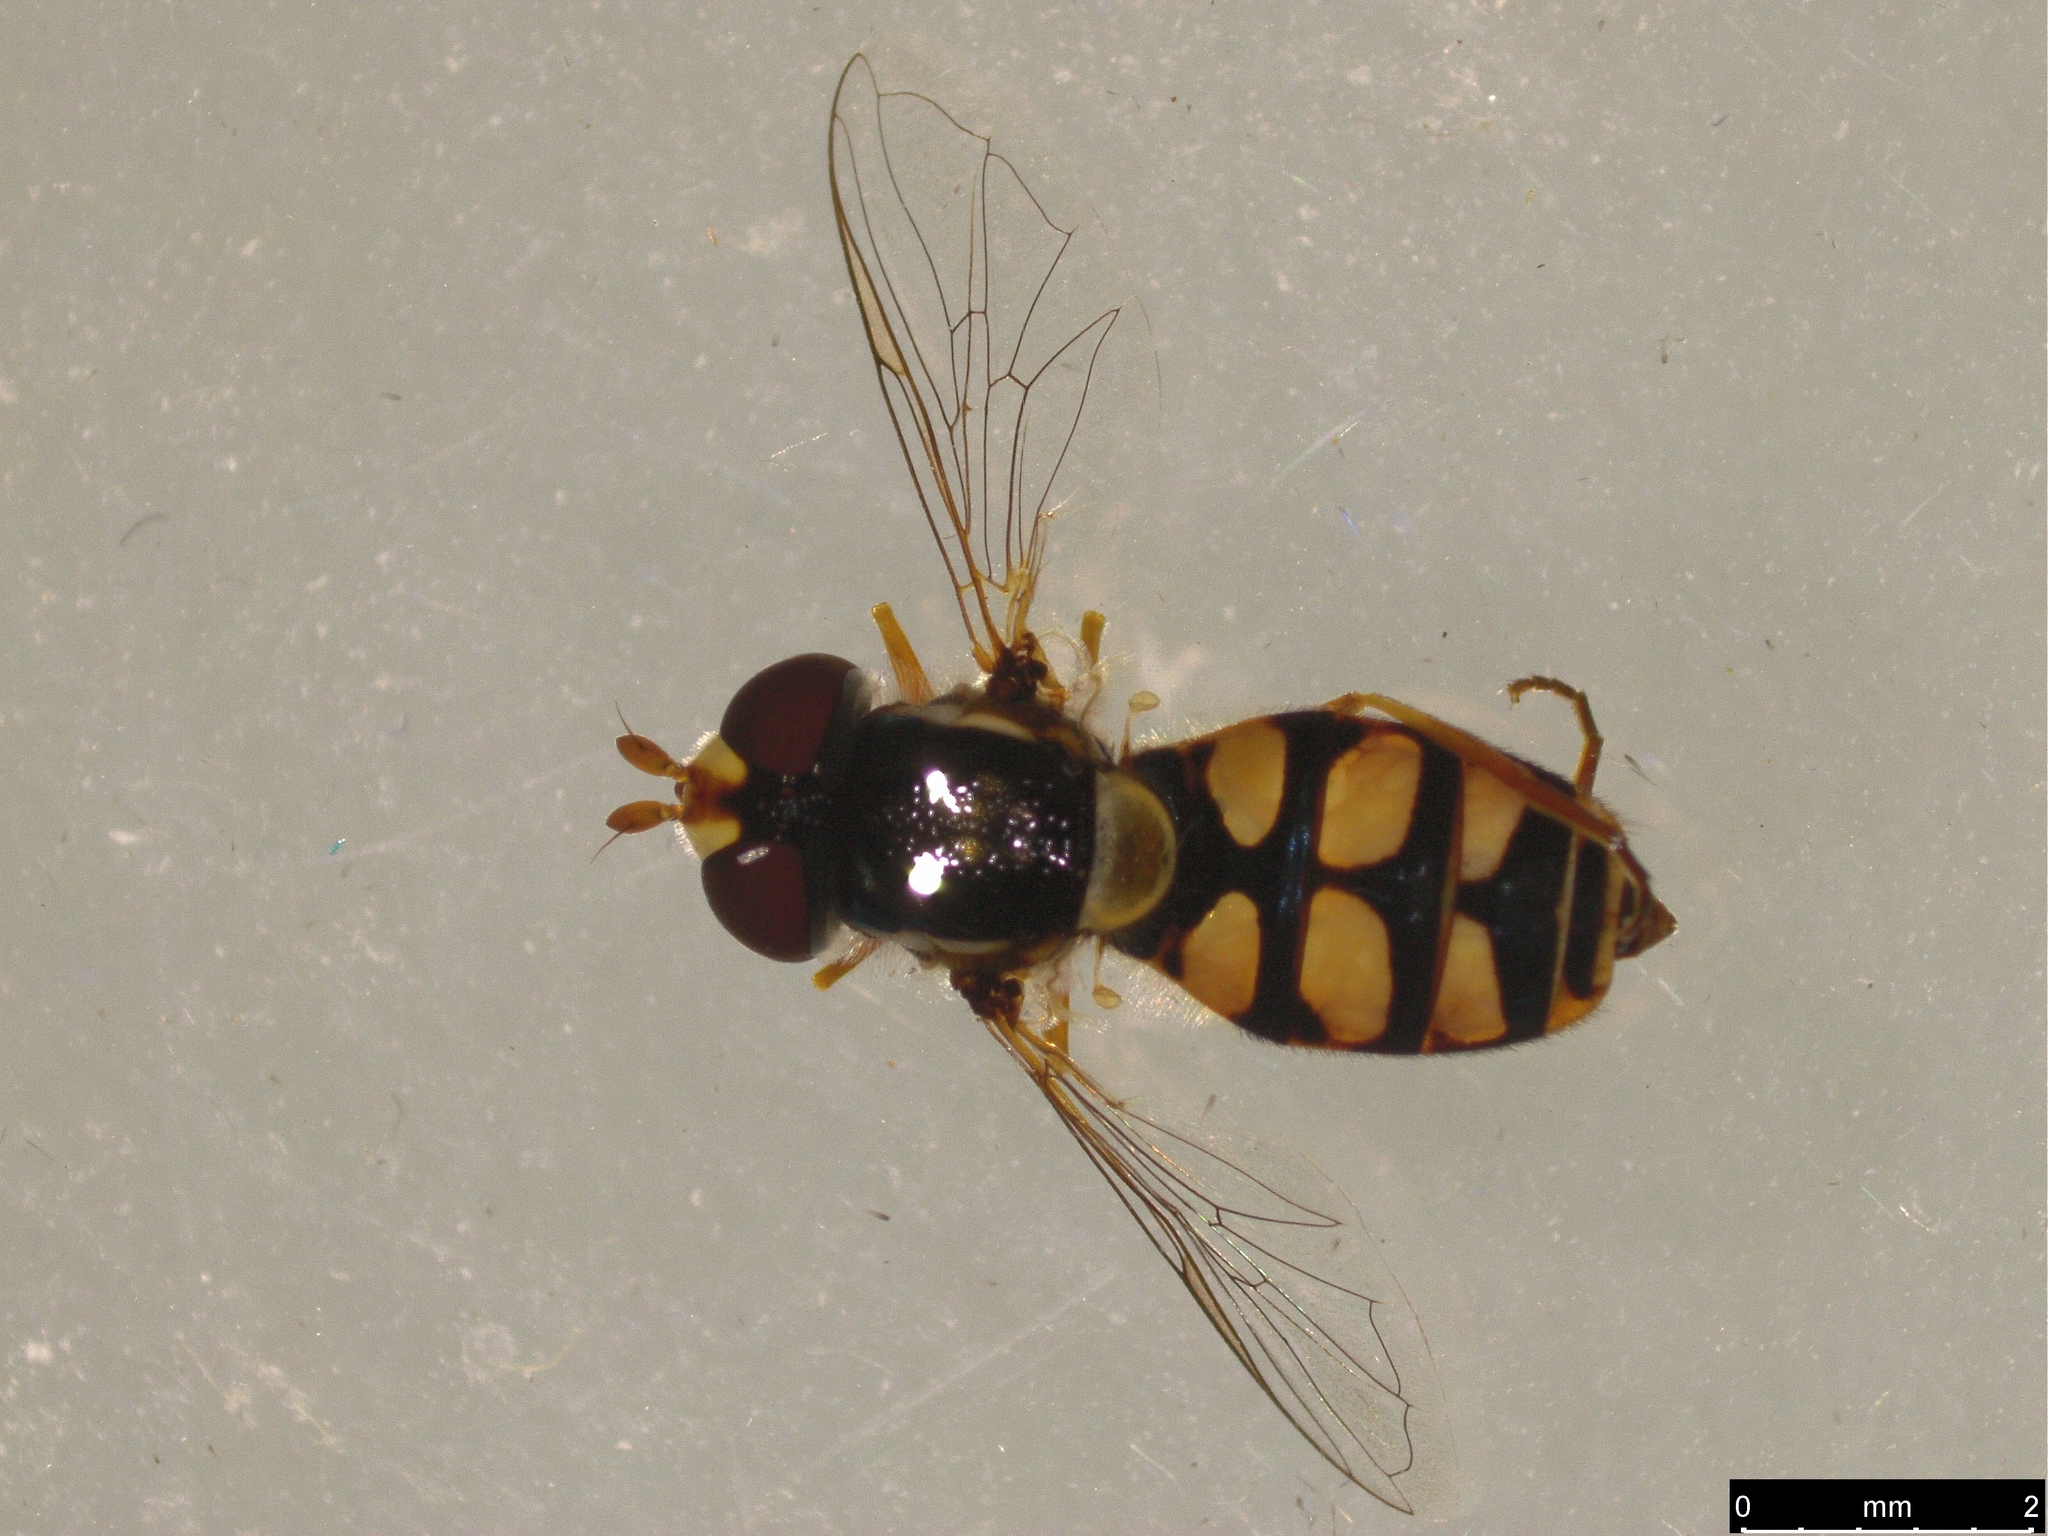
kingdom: Animalia
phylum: Arthropoda
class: Insecta
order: Diptera
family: Syrphidae
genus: Simosyrphus
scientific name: Simosyrphus grandicornis
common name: Hoverfly
